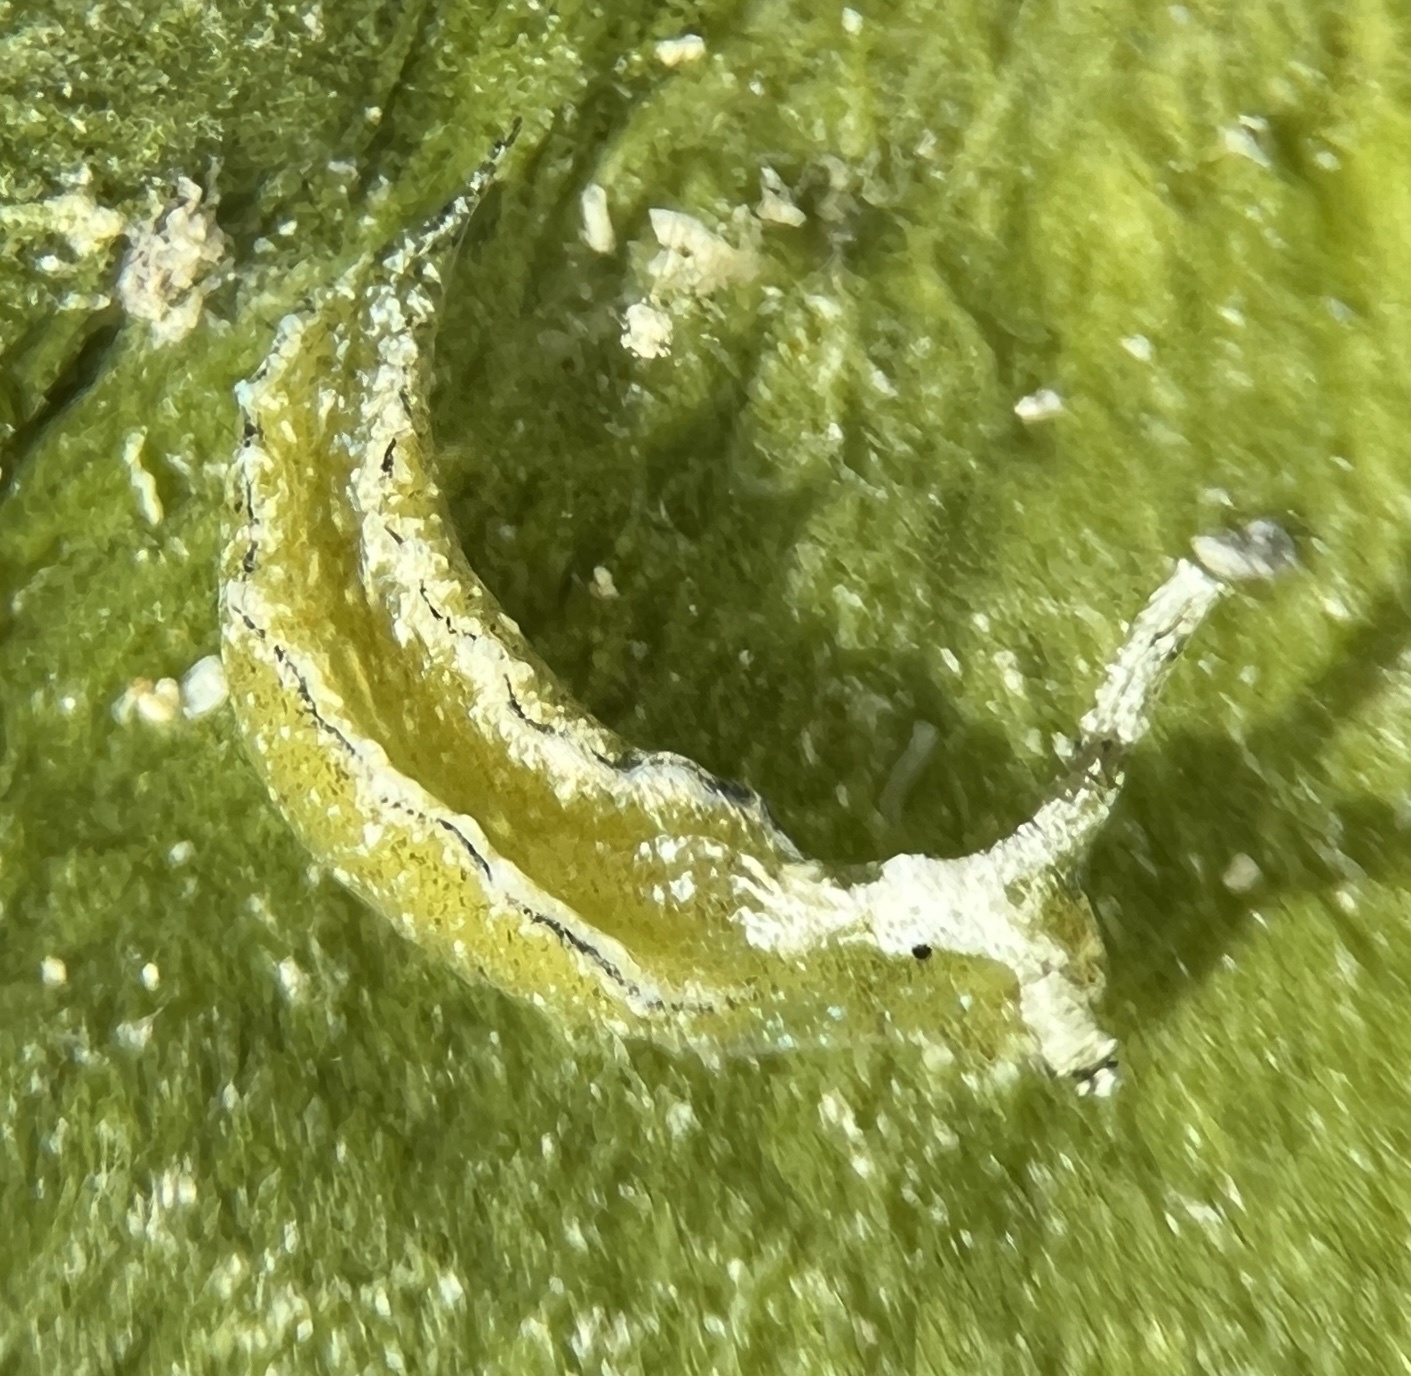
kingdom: Animalia
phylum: Mollusca
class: Gastropoda
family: Plakobranchidae
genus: Elysia
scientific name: Elysia zuleicae
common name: Zuleica's elysia
